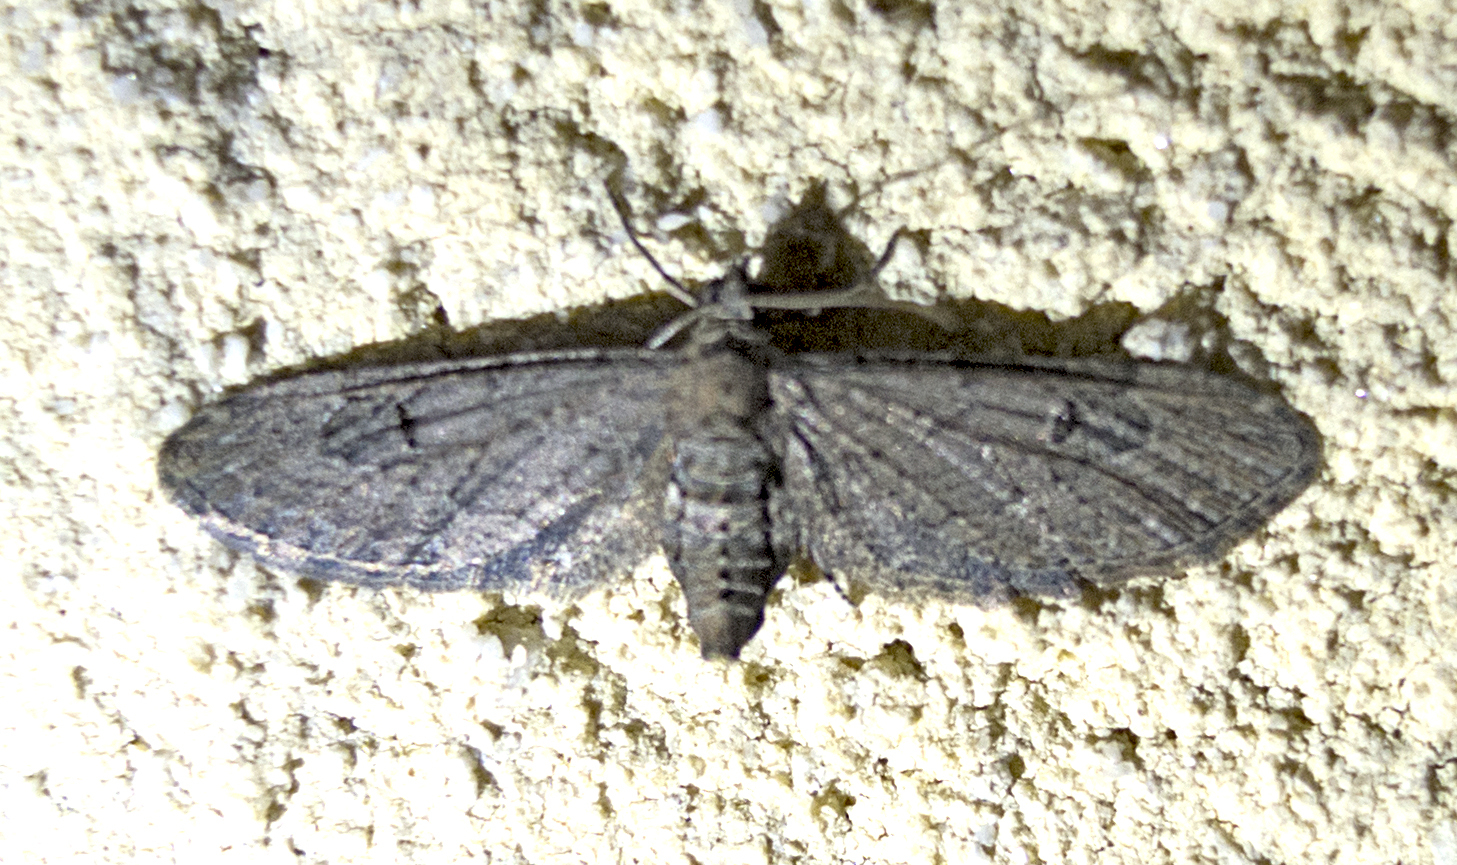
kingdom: Animalia
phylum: Arthropoda
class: Insecta
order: Lepidoptera
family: Geometridae
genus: Eupithecia
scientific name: Eupithecia
